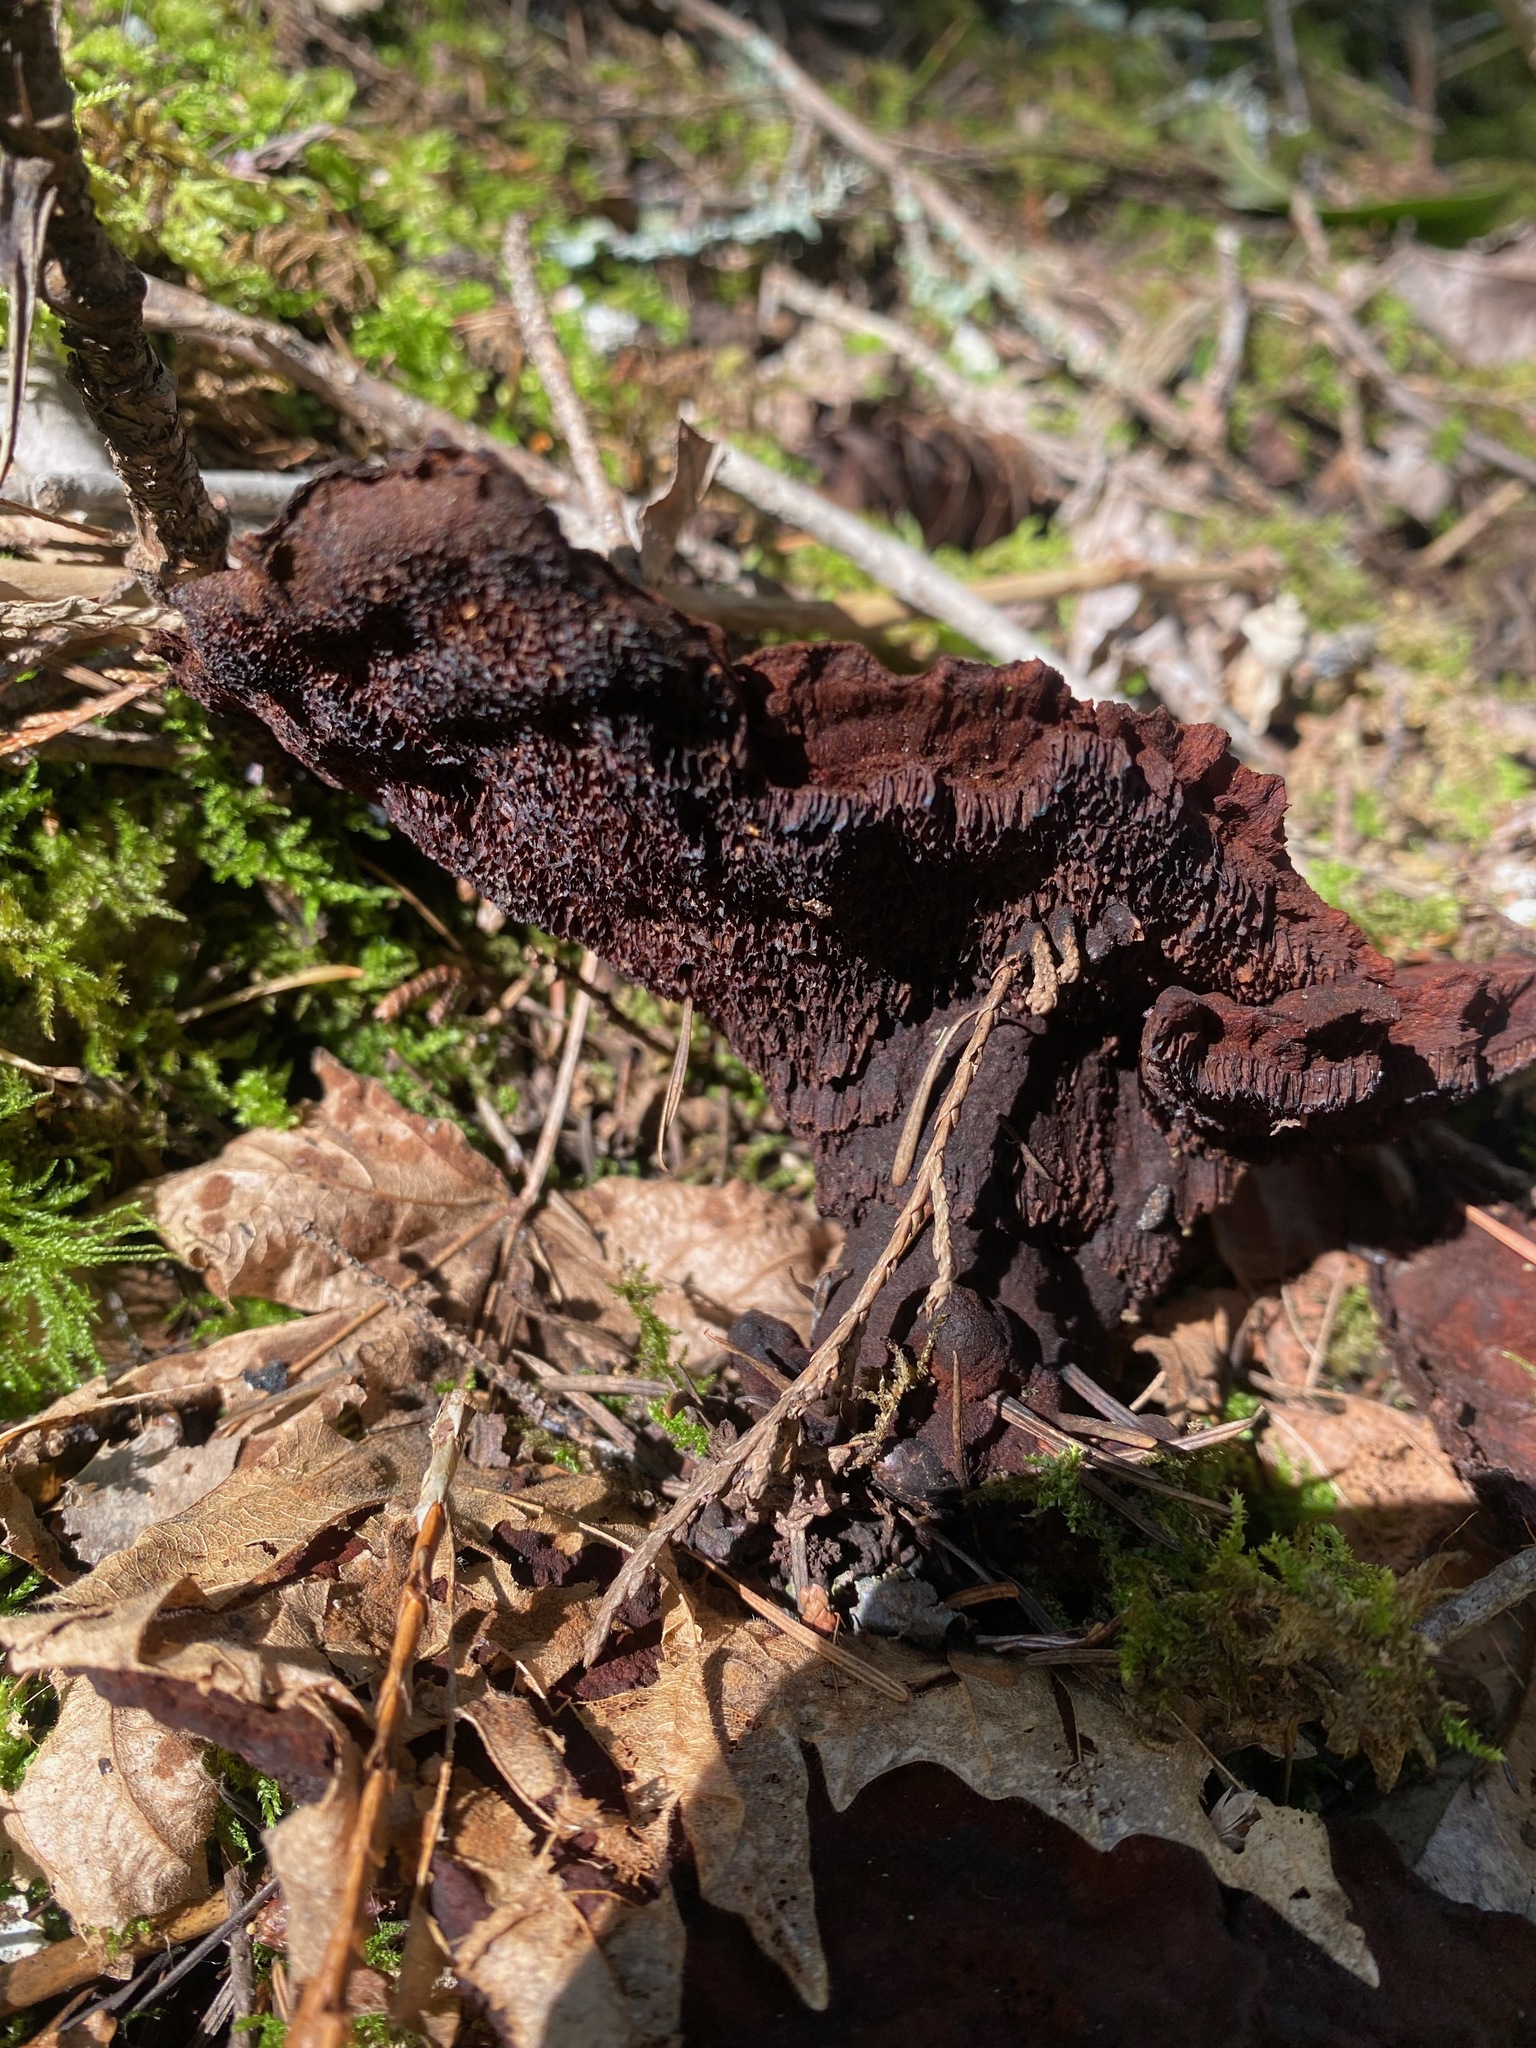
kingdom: Fungi
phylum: Basidiomycota
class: Agaricomycetes
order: Polyporales
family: Laetiporaceae
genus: Phaeolus
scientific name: Phaeolus schweinitzii
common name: Dyer's mazegill
